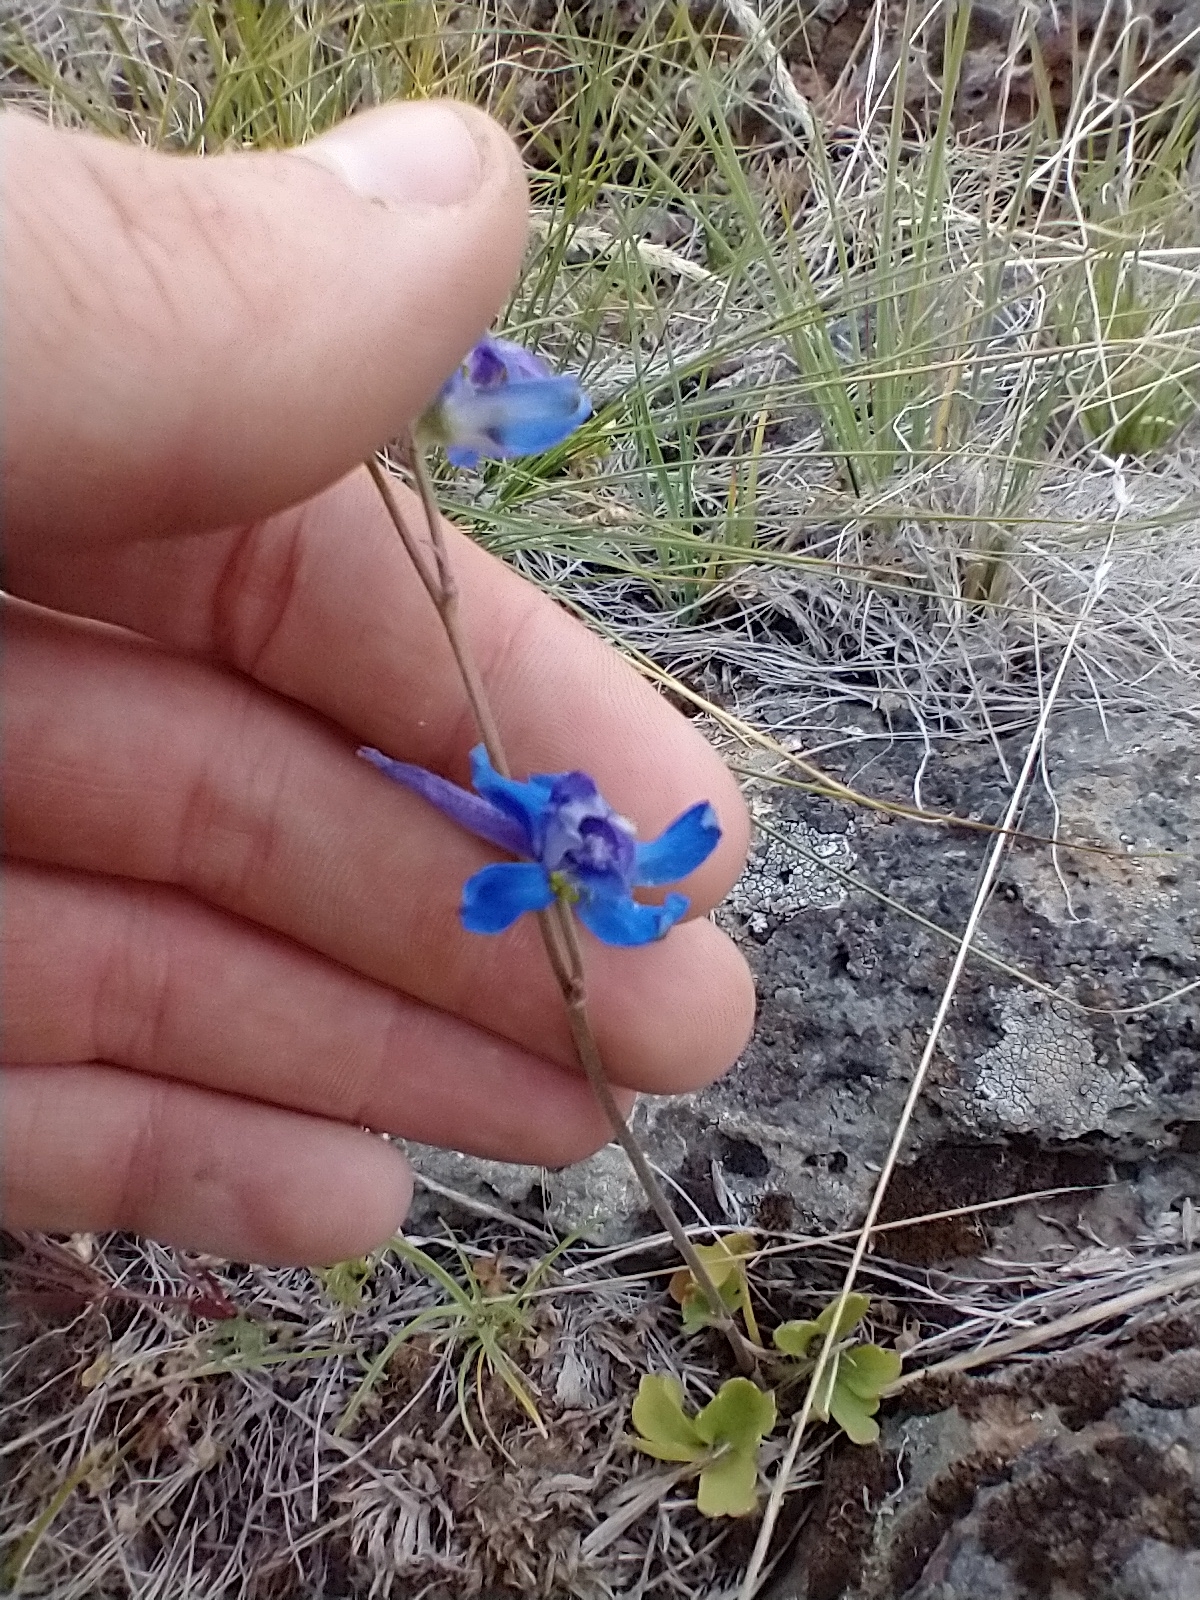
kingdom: Plantae
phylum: Tracheophyta
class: Magnoliopsida
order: Ranunculales
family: Ranunculaceae
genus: Delphinium
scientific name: Delphinium depauperatum
